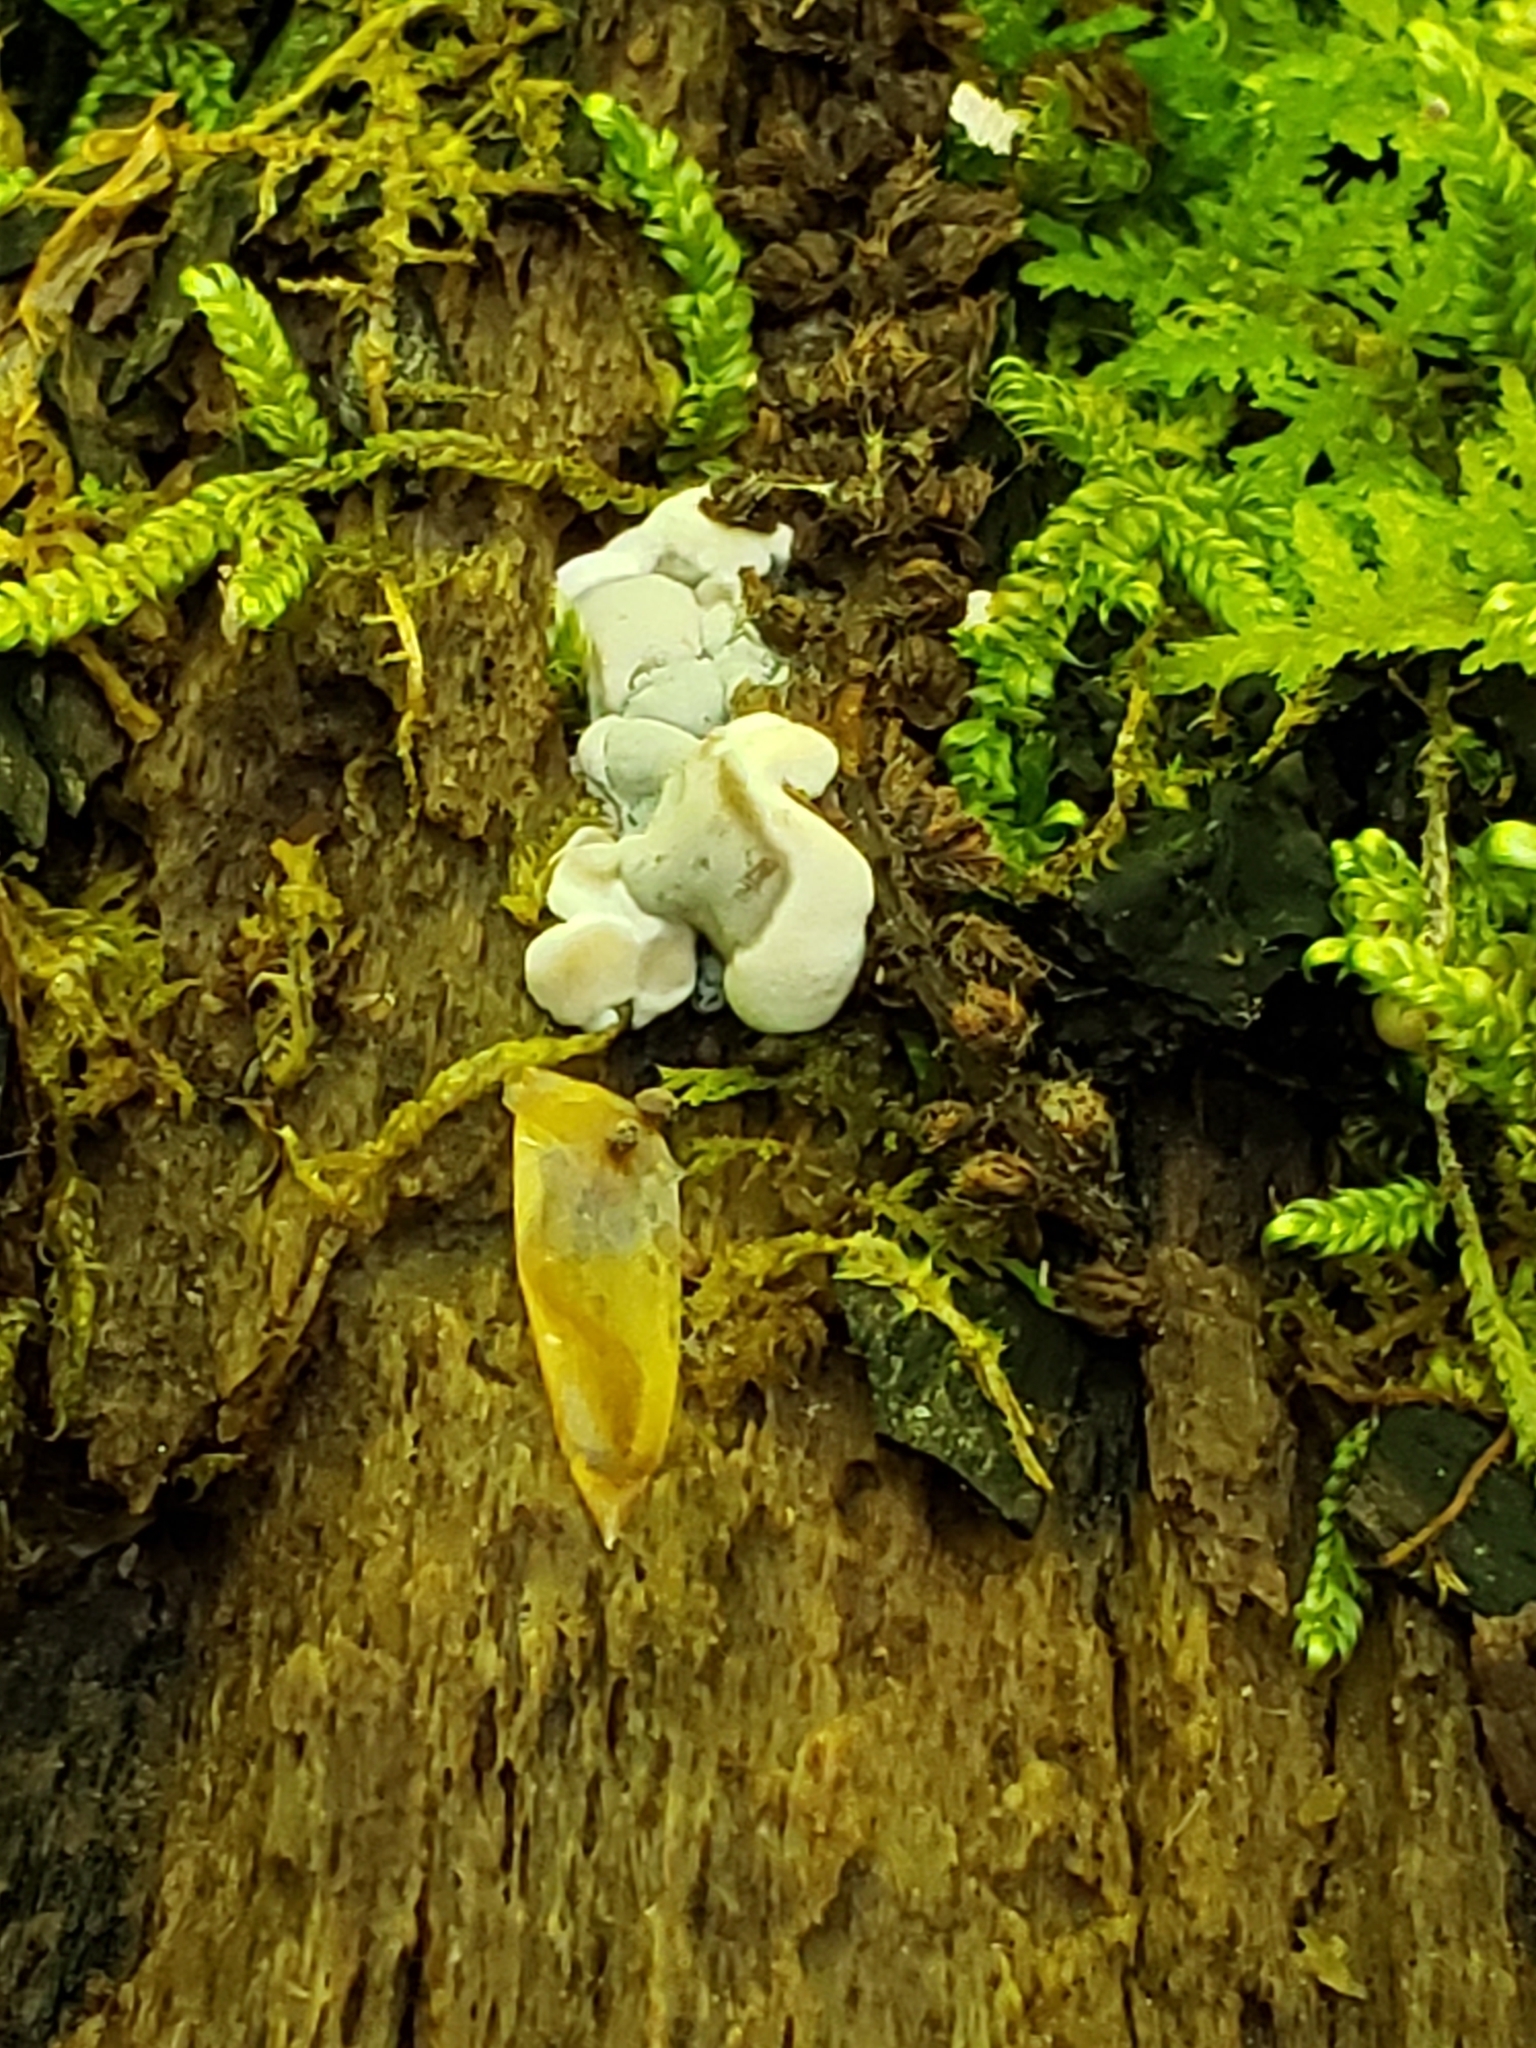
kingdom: Fungi
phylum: Ascomycota
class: Sordariomycetes
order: Xylariales
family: Xylariaceae
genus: Kretzschmaria
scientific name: Kretzschmaria deusta
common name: Brittle cinder
